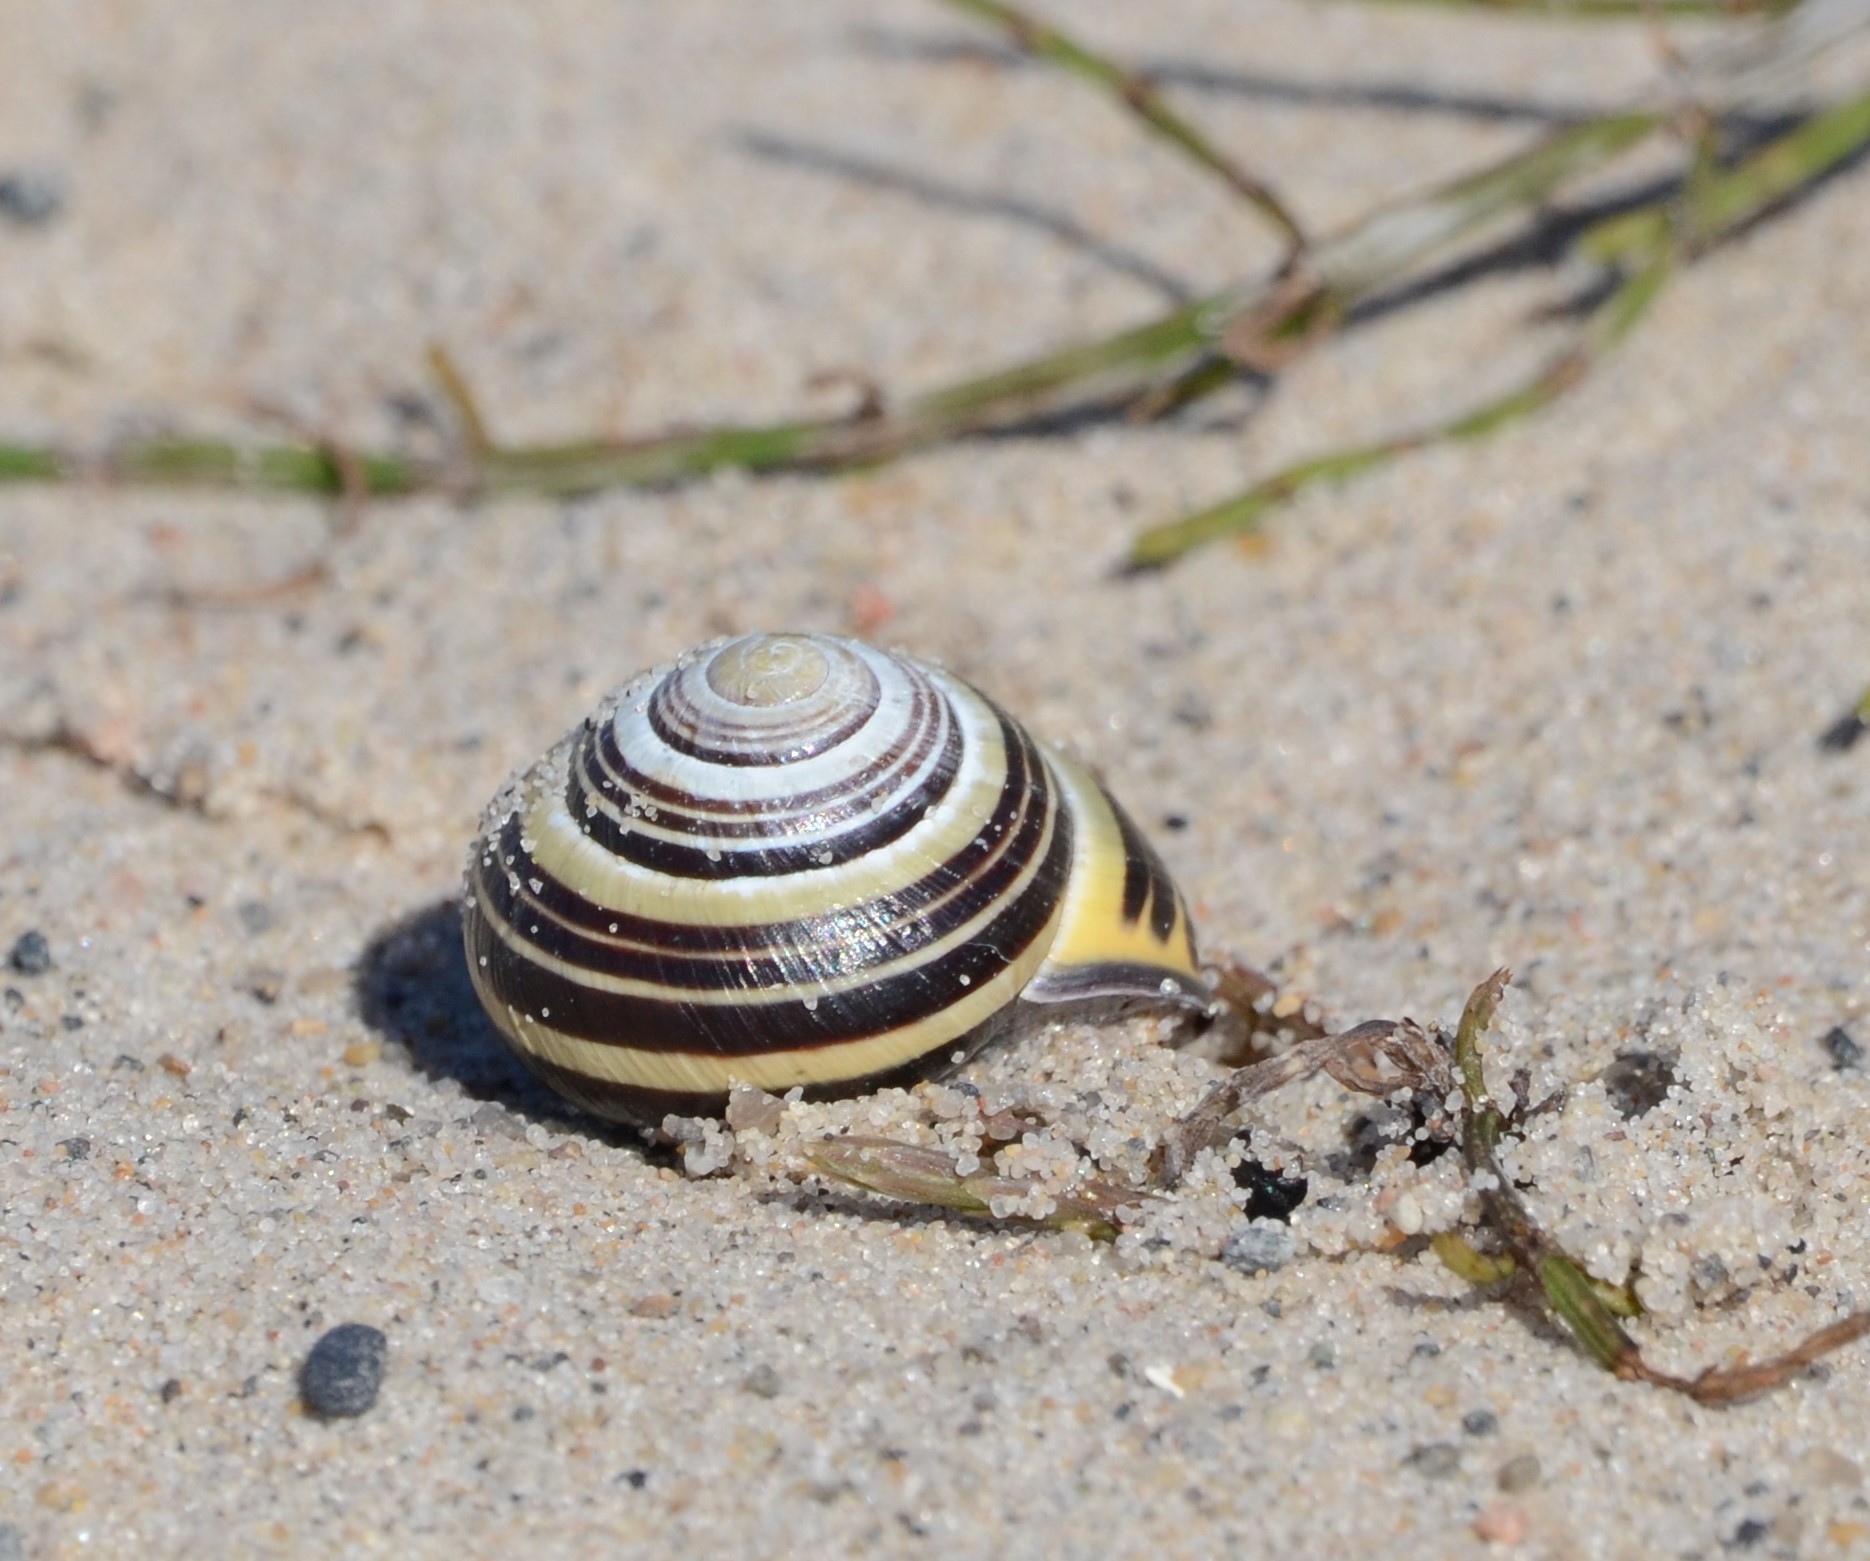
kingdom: Animalia
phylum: Mollusca
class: Gastropoda
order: Stylommatophora
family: Helicidae
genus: Cepaea
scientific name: Cepaea nemoralis
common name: Grovesnail
